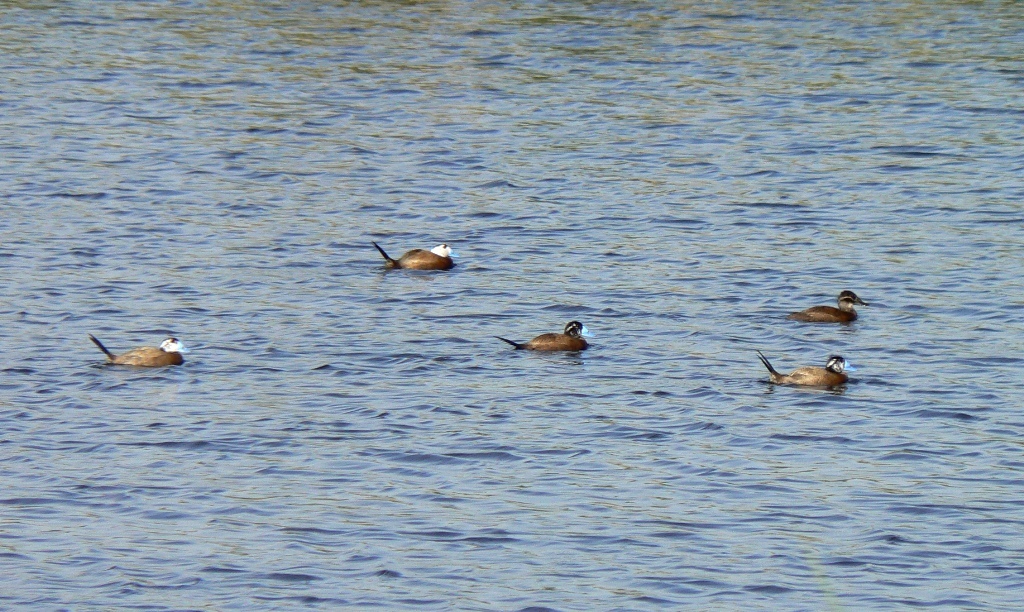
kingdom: Animalia
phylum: Chordata
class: Aves
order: Anseriformes
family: Anatidae
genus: Oxyura
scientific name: Oxyura leucocephala
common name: White-headed duck
